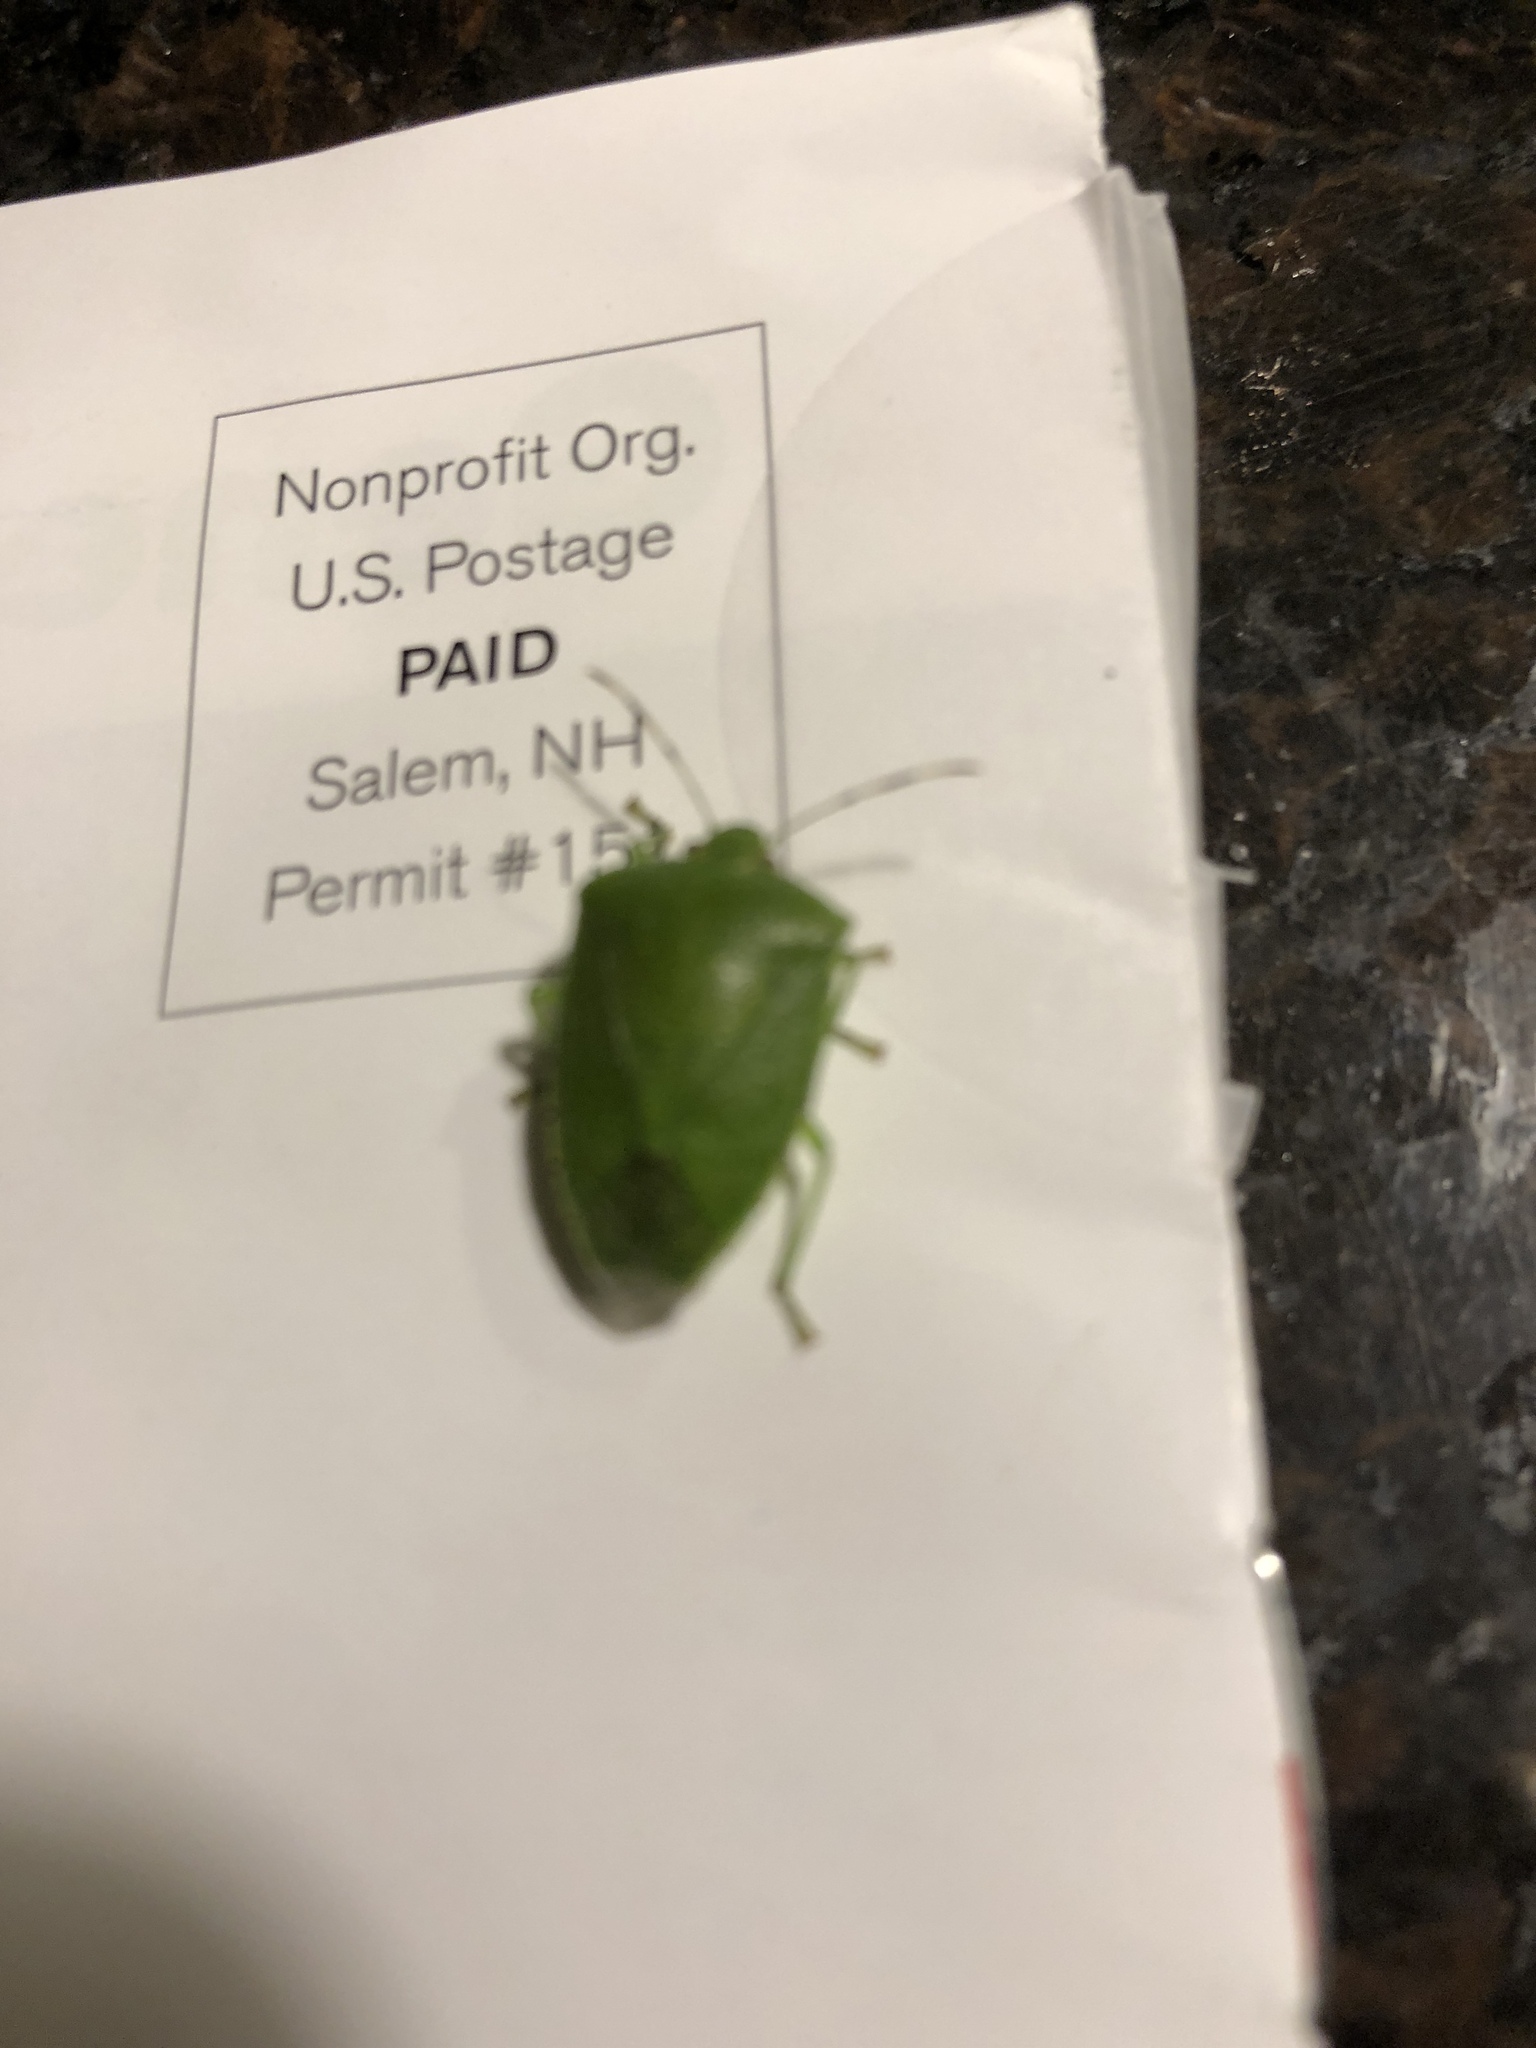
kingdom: Animalia
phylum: Arthropoda
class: Insecta
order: Hemiptera
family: Pentatomidae
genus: Chinavia
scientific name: Chinavia hilaris
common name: Green stink bug
